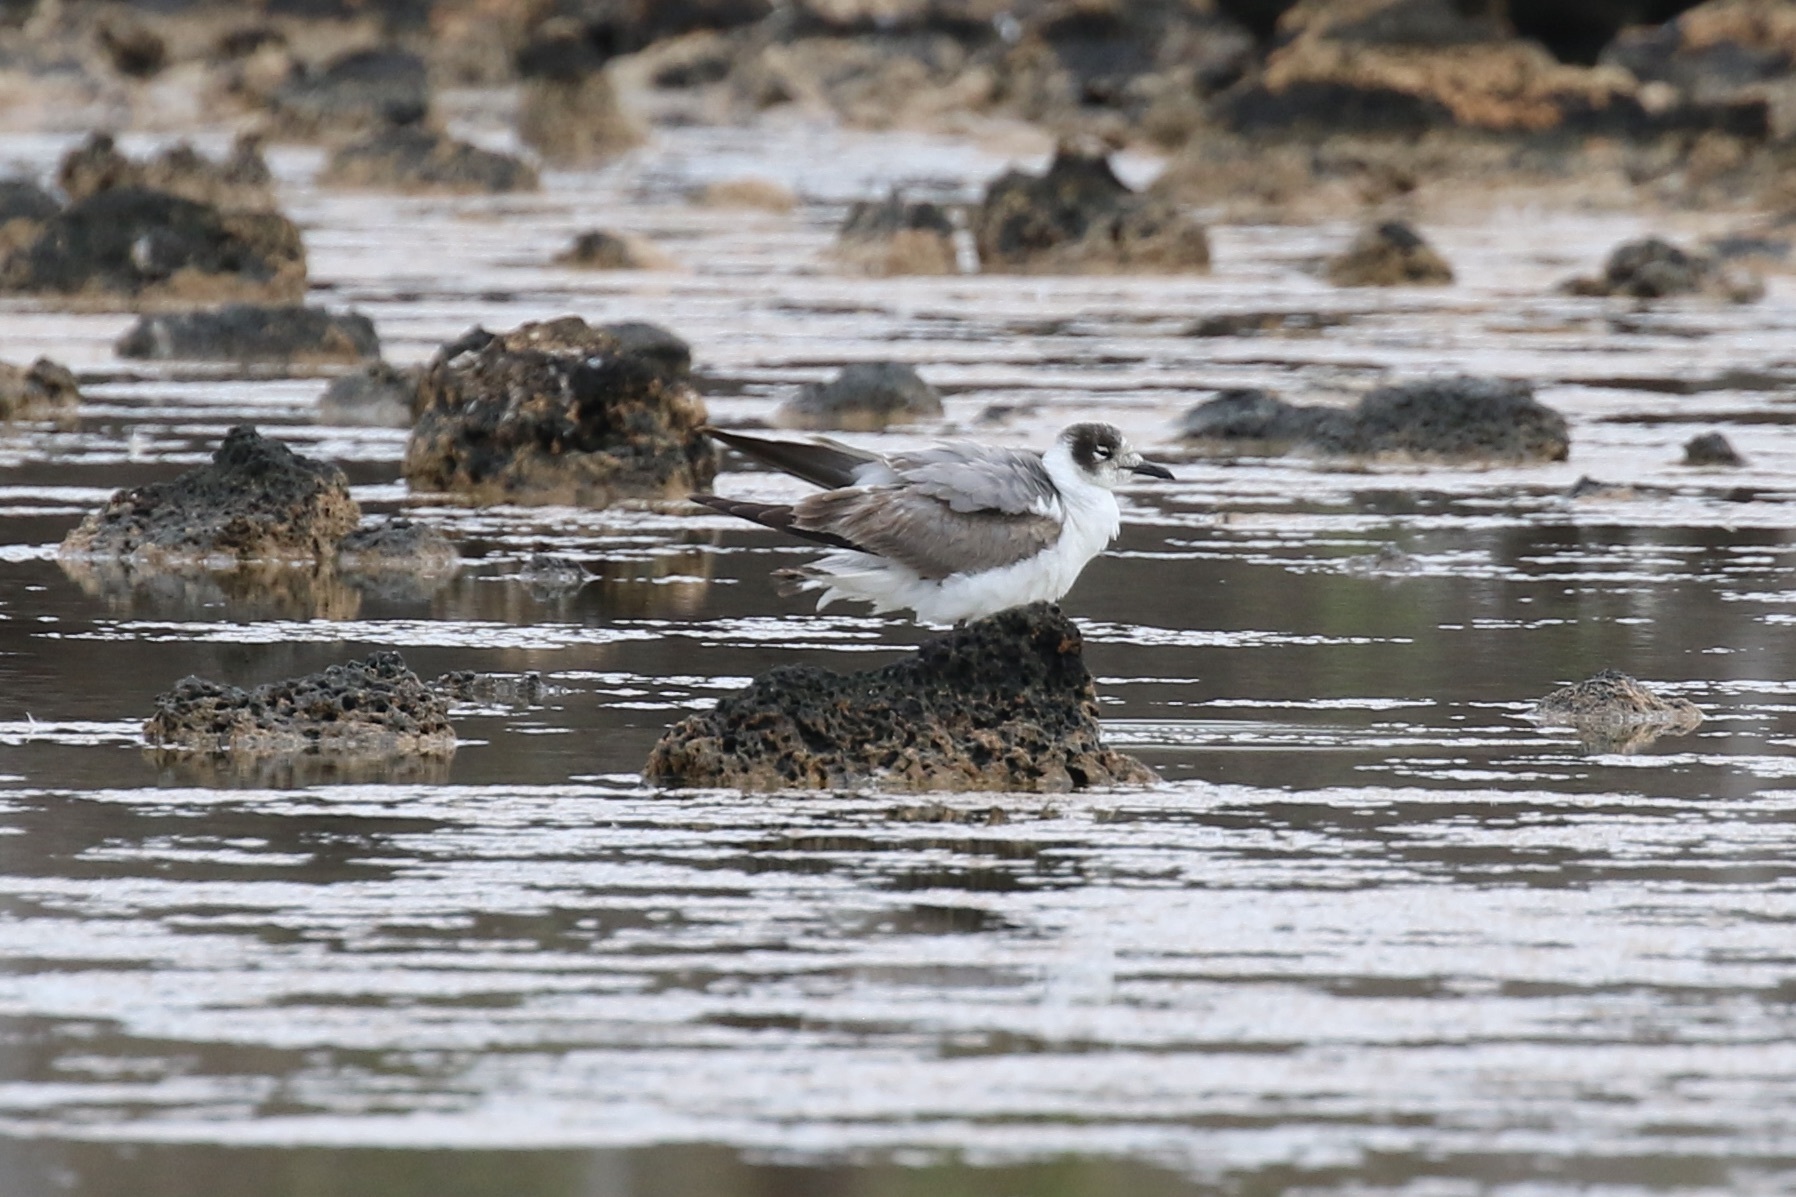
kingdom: Animalia
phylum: Chordata
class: Aves
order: Charadriiformes
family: Laridae
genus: Leucophaeus
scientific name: Leucophaeus pipixcan
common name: Franklin's gull
